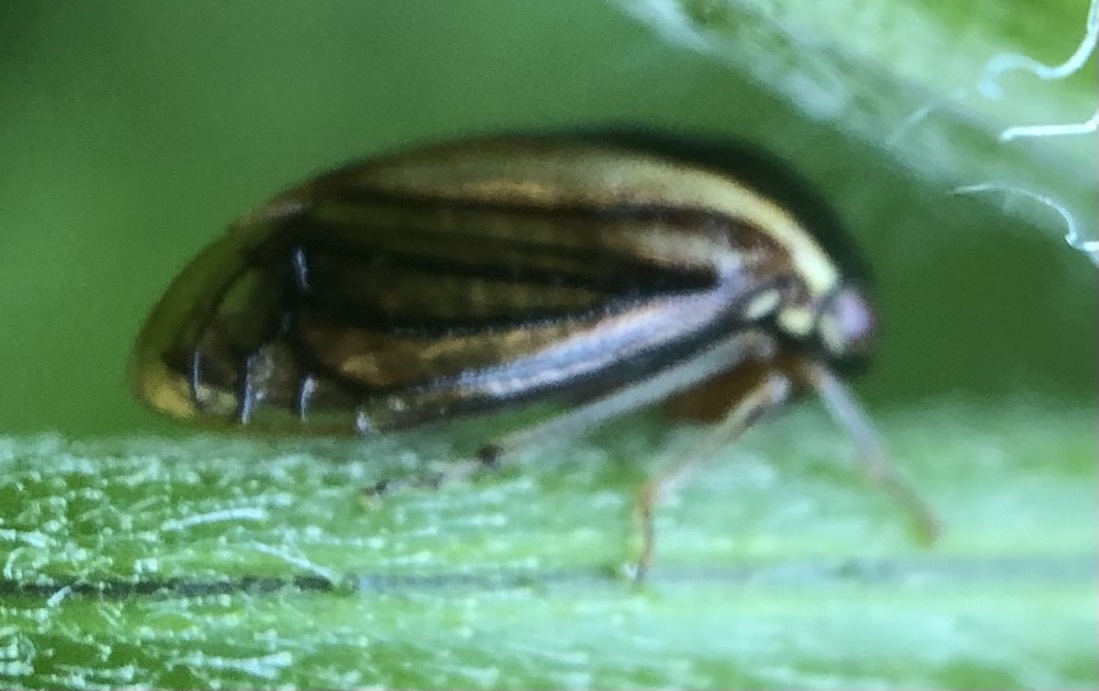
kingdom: Animalia
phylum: Arthropoda
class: Insecta
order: Hemiptera
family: Membracidae
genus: Acutalis
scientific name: Acutalis tartarea
